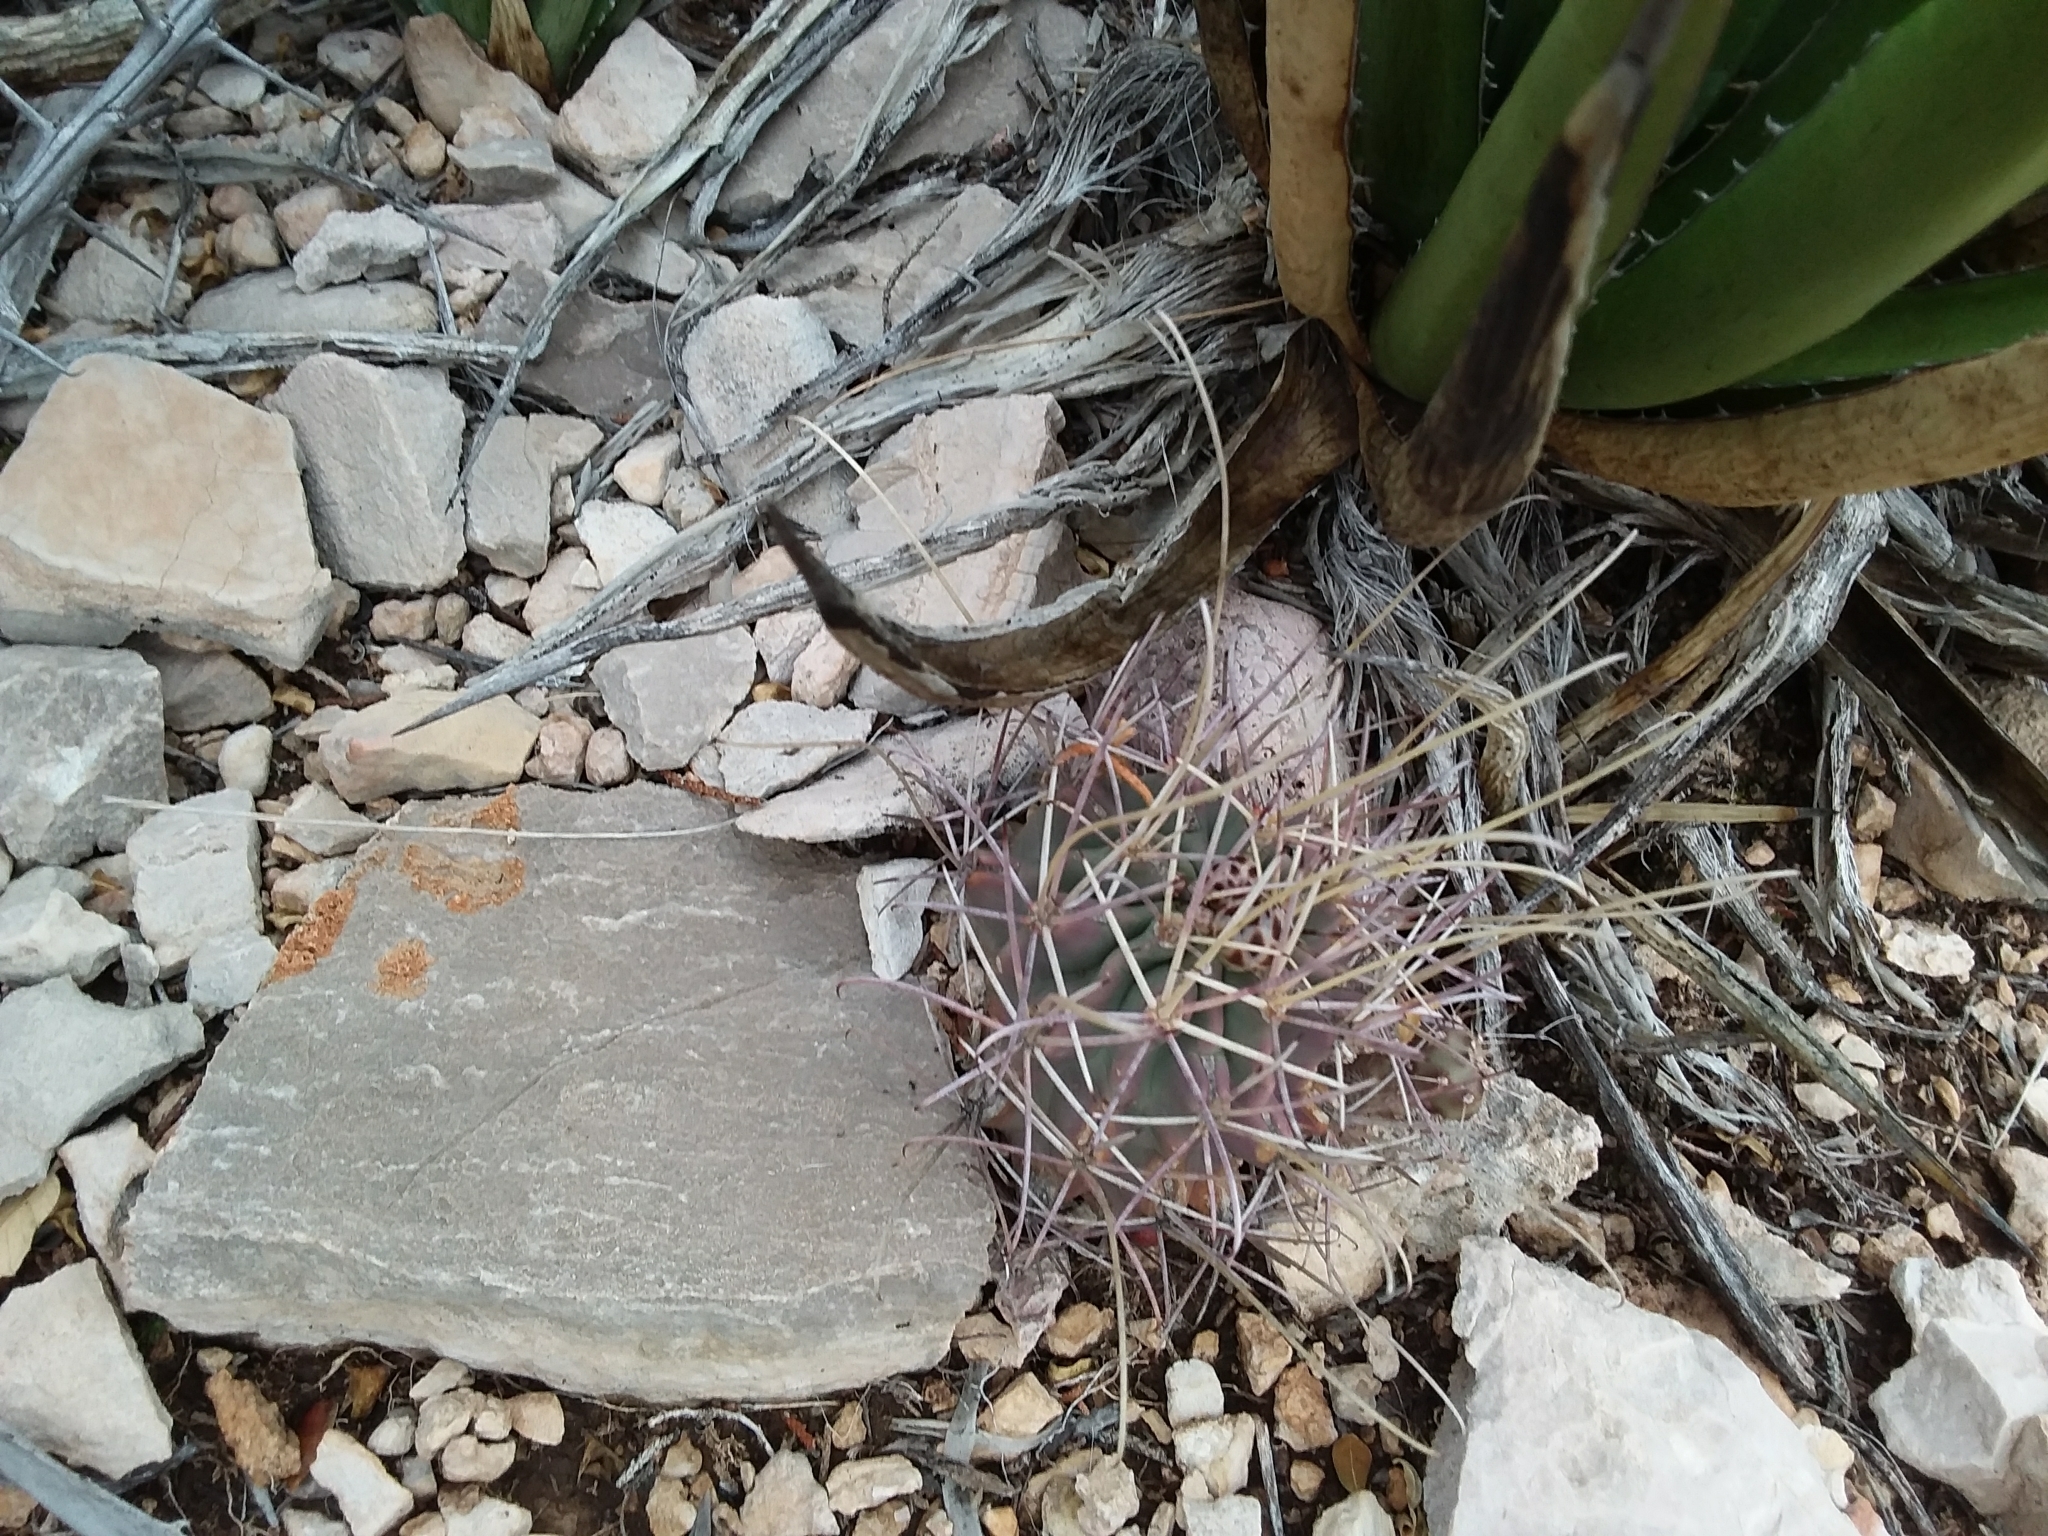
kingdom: Plantae
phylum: Tracheophyta
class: Magnoliopsida
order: Caryophyllales
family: Cactaceae
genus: Ferocactus
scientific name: Ferocactus uncinatus
